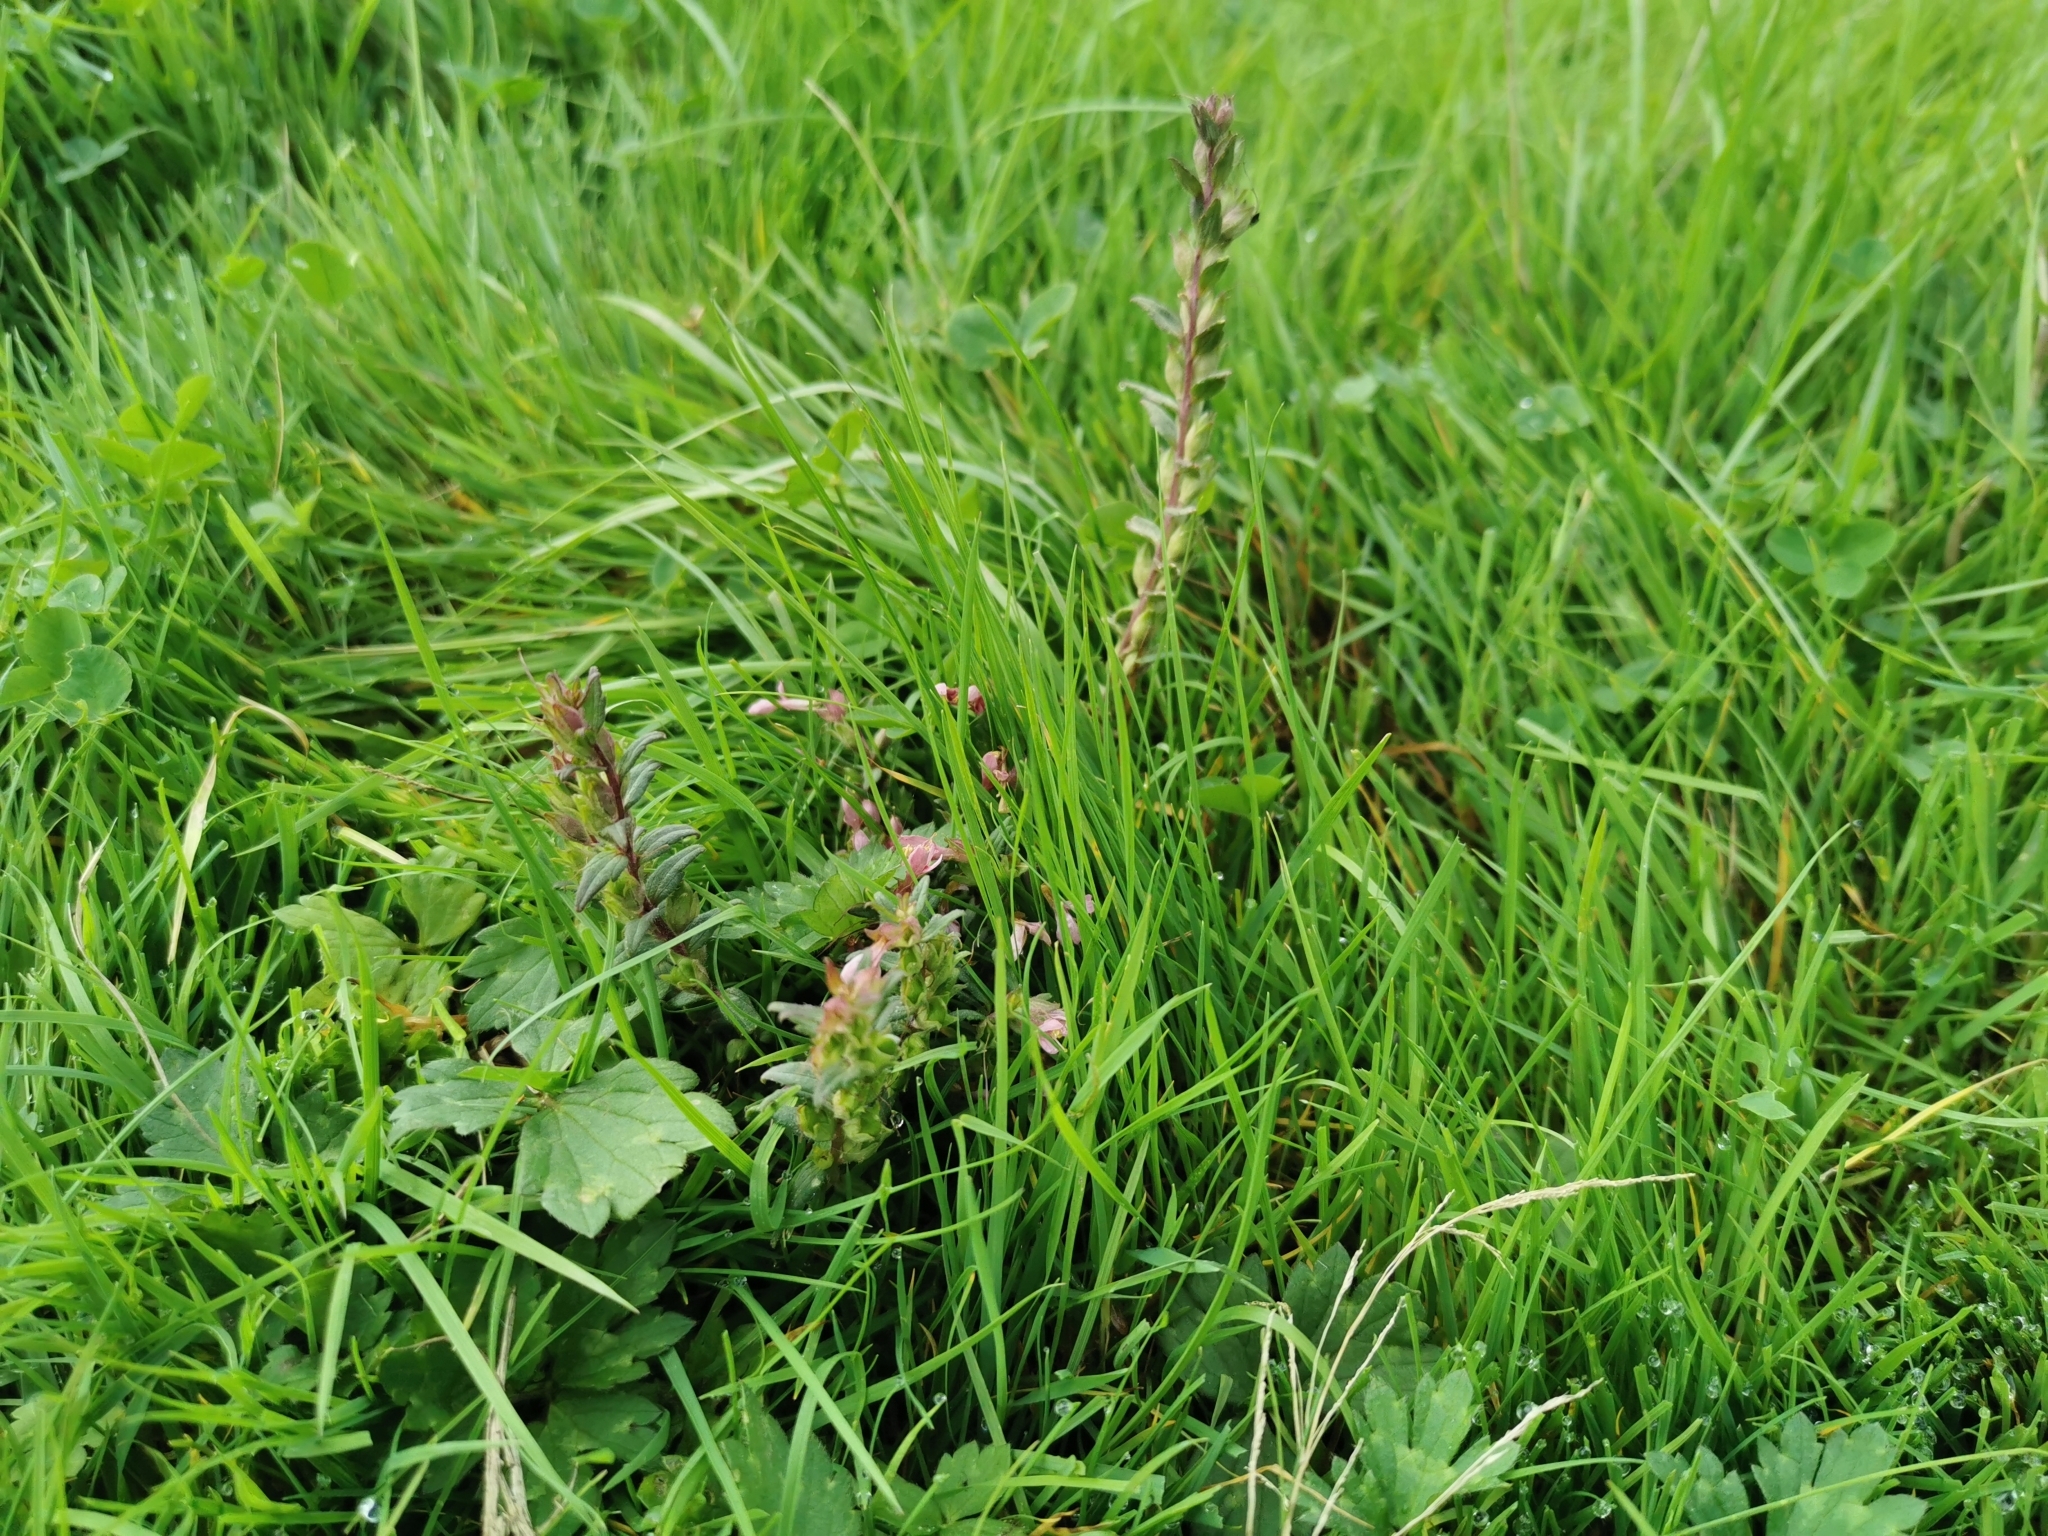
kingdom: Plantae
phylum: Tracheophyta
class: Magnoliopsida
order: Lamiales
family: Orobanchaceae
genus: Odontites
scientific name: Odontites vulgaris
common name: Broomrape
